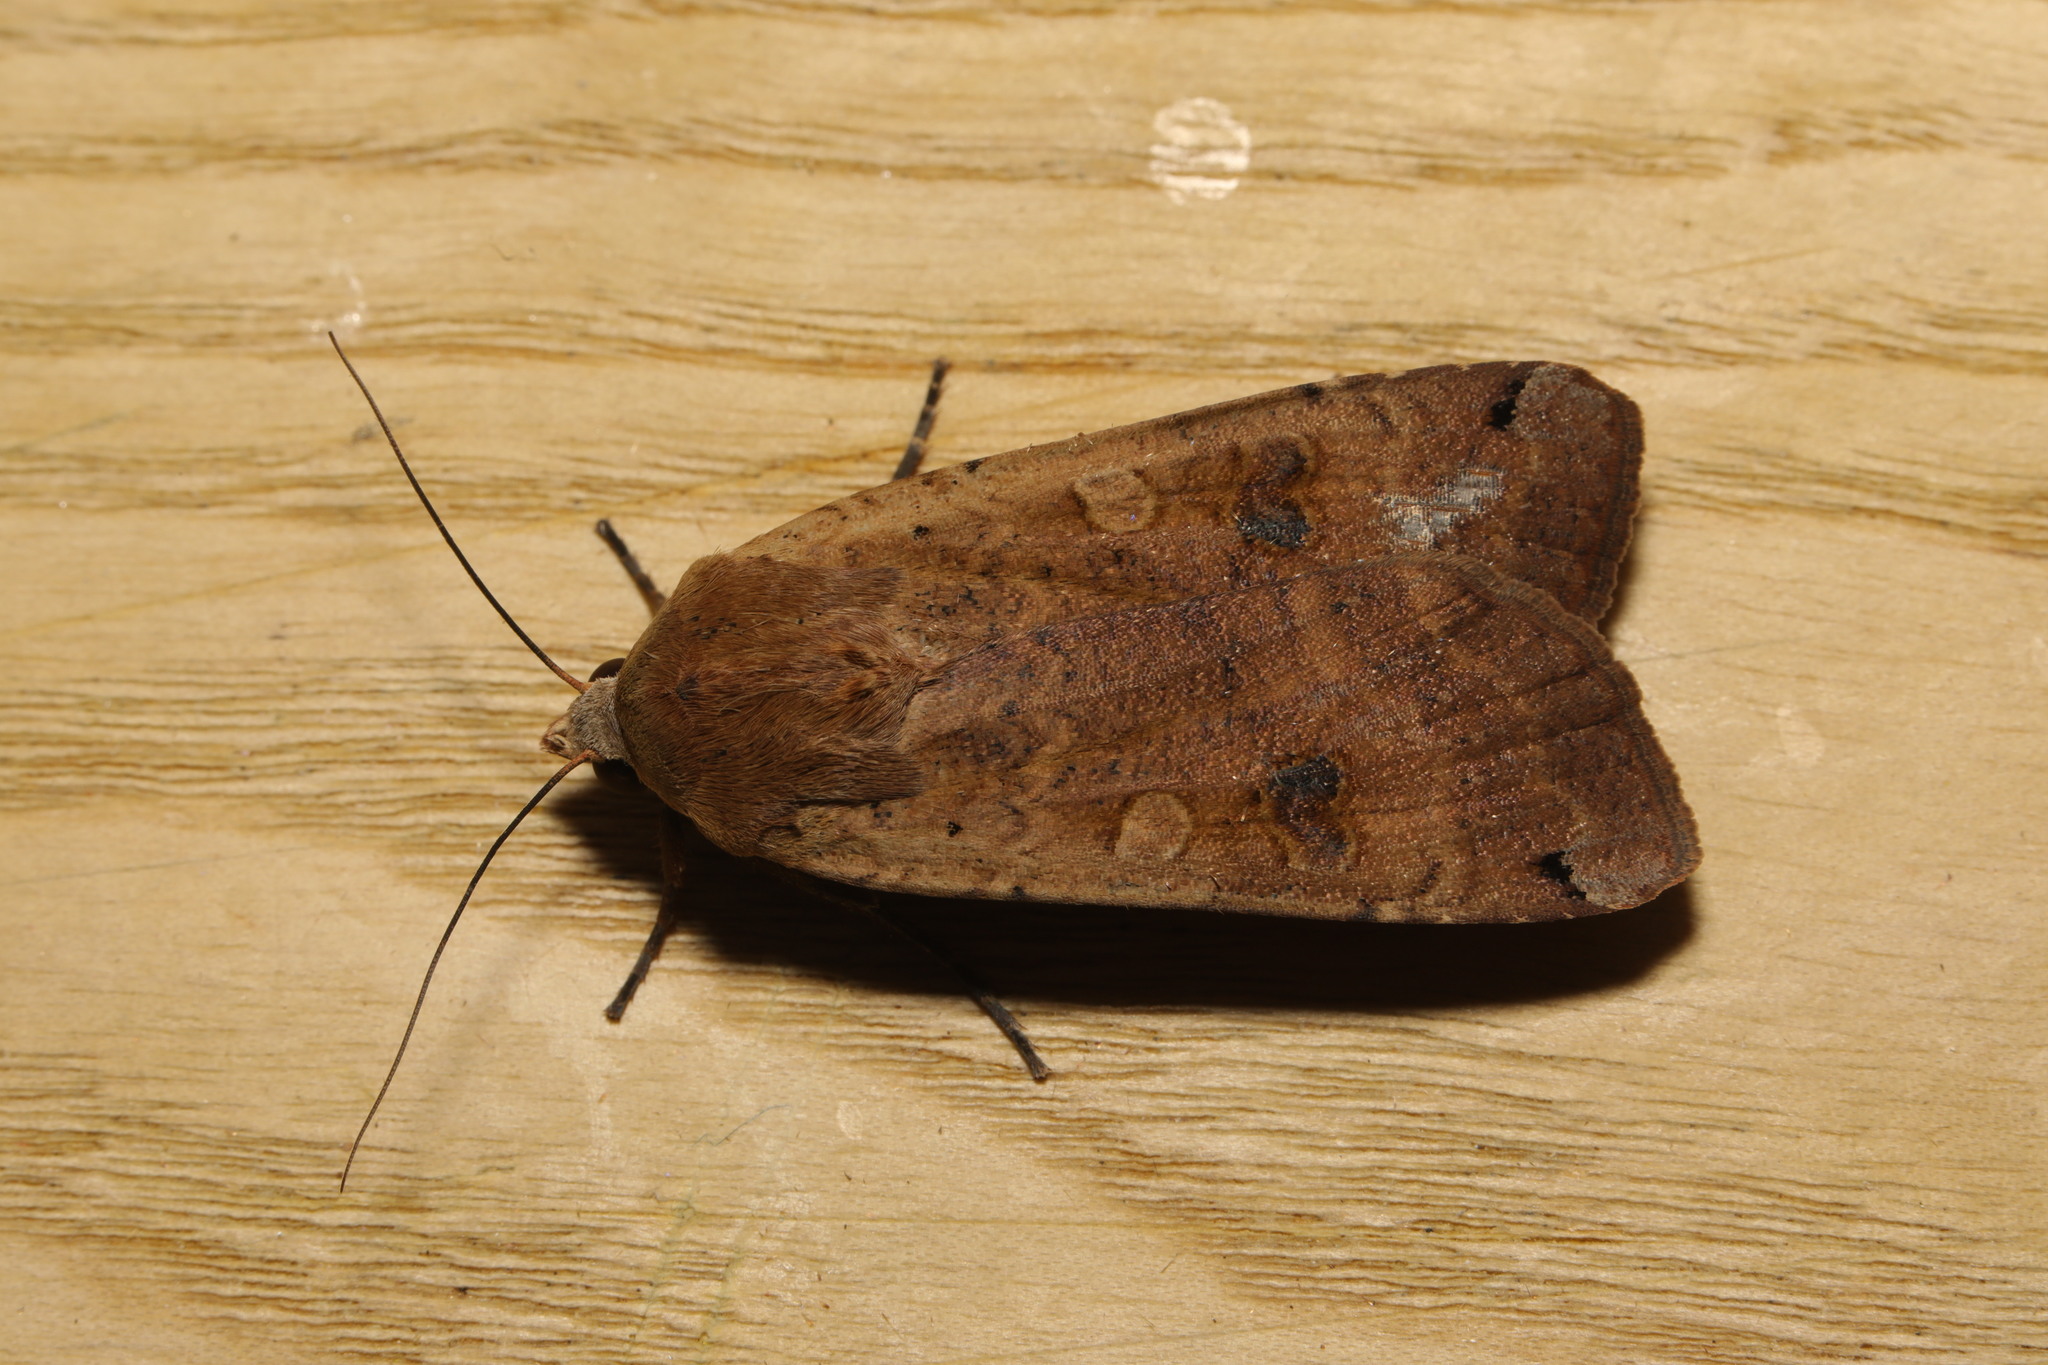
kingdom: Animalia
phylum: Arthropoda
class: Insecta
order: Lepidoptera
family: Noctuidae
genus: Noctua
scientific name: Noctua pronuba
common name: Large yellow underwing
